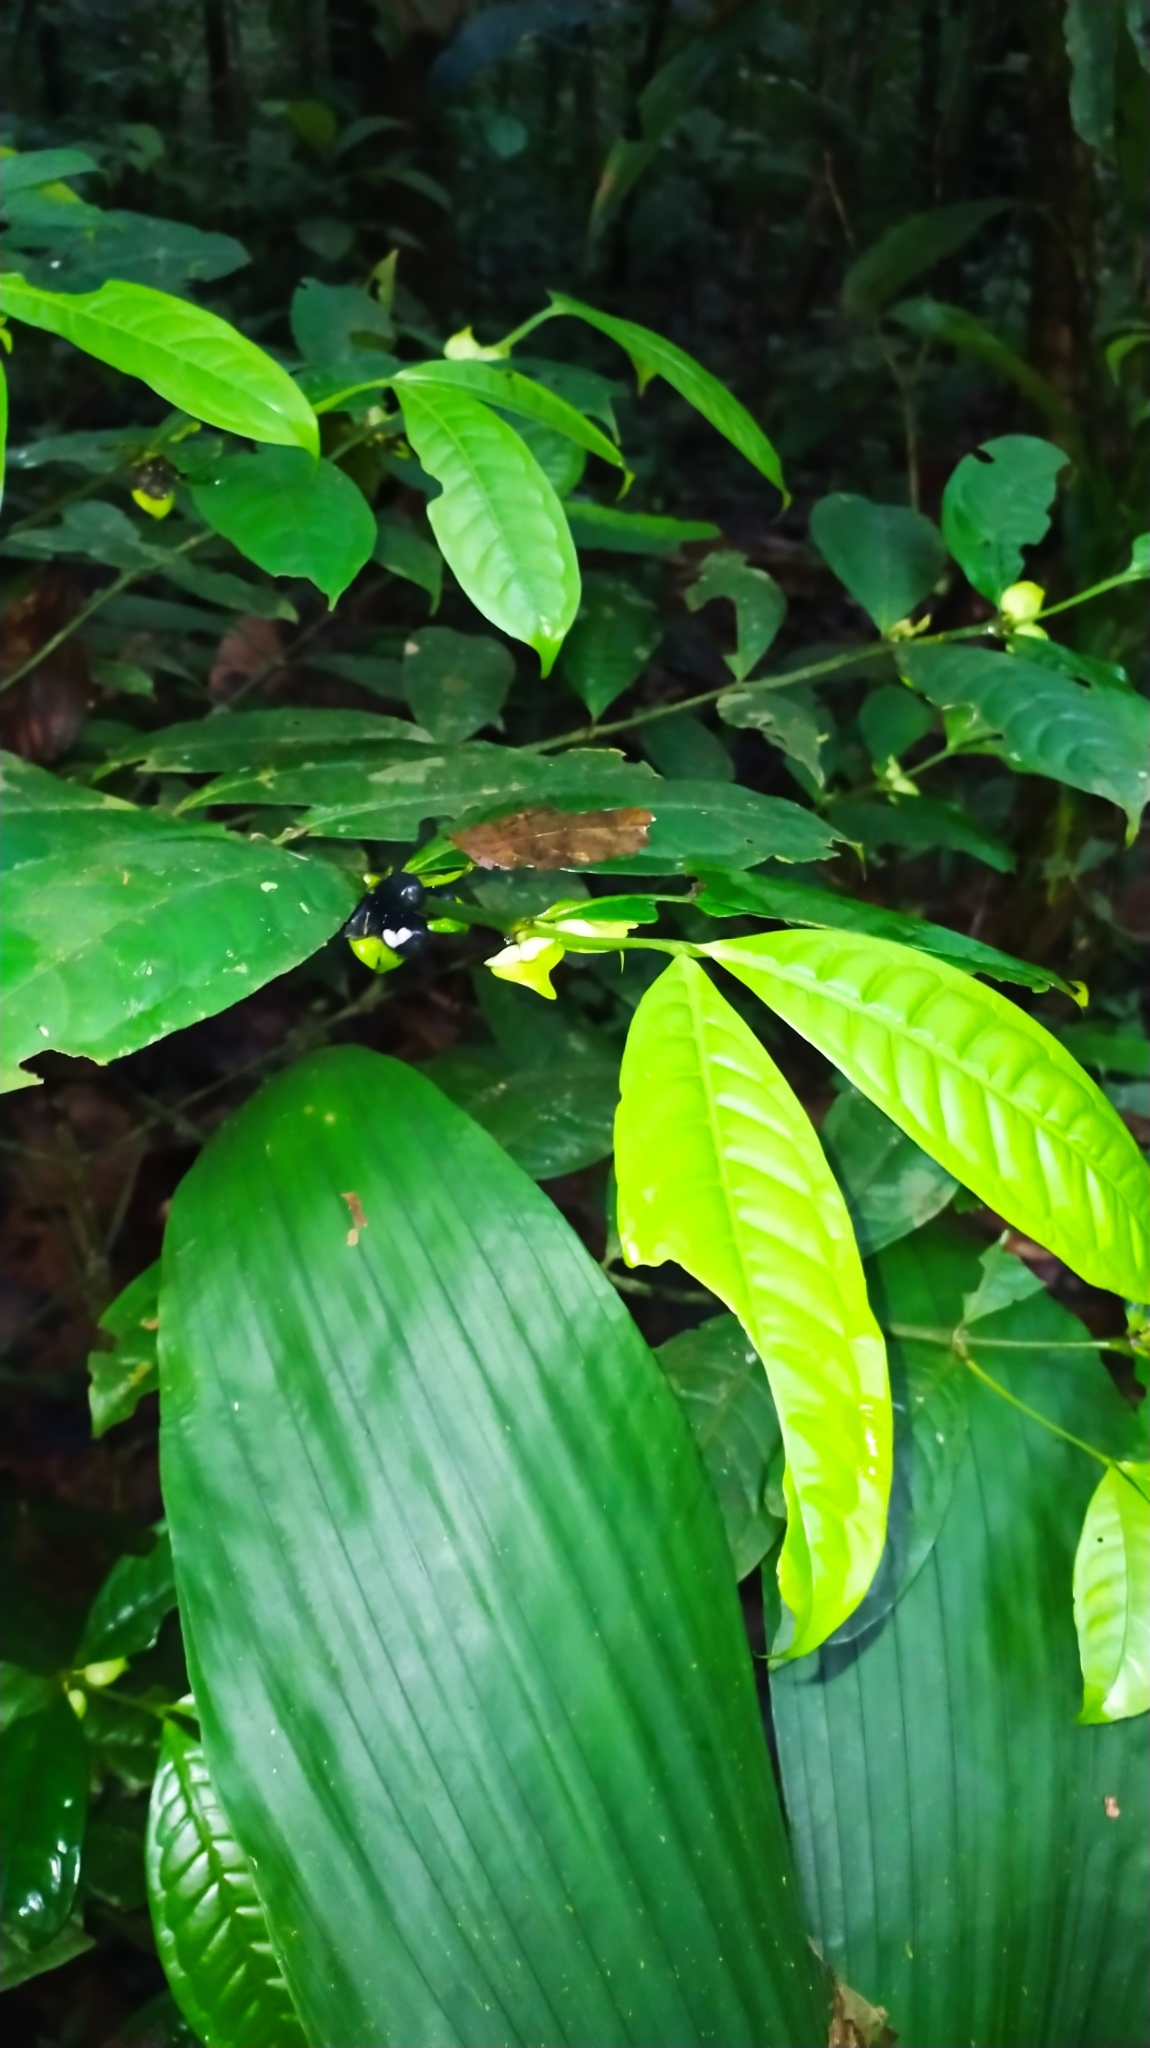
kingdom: Plantae
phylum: Tracheophyta
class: Magnoliopsida
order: Gentianales
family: Rubiaceae
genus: Faramea
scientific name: Faramea guianensis
